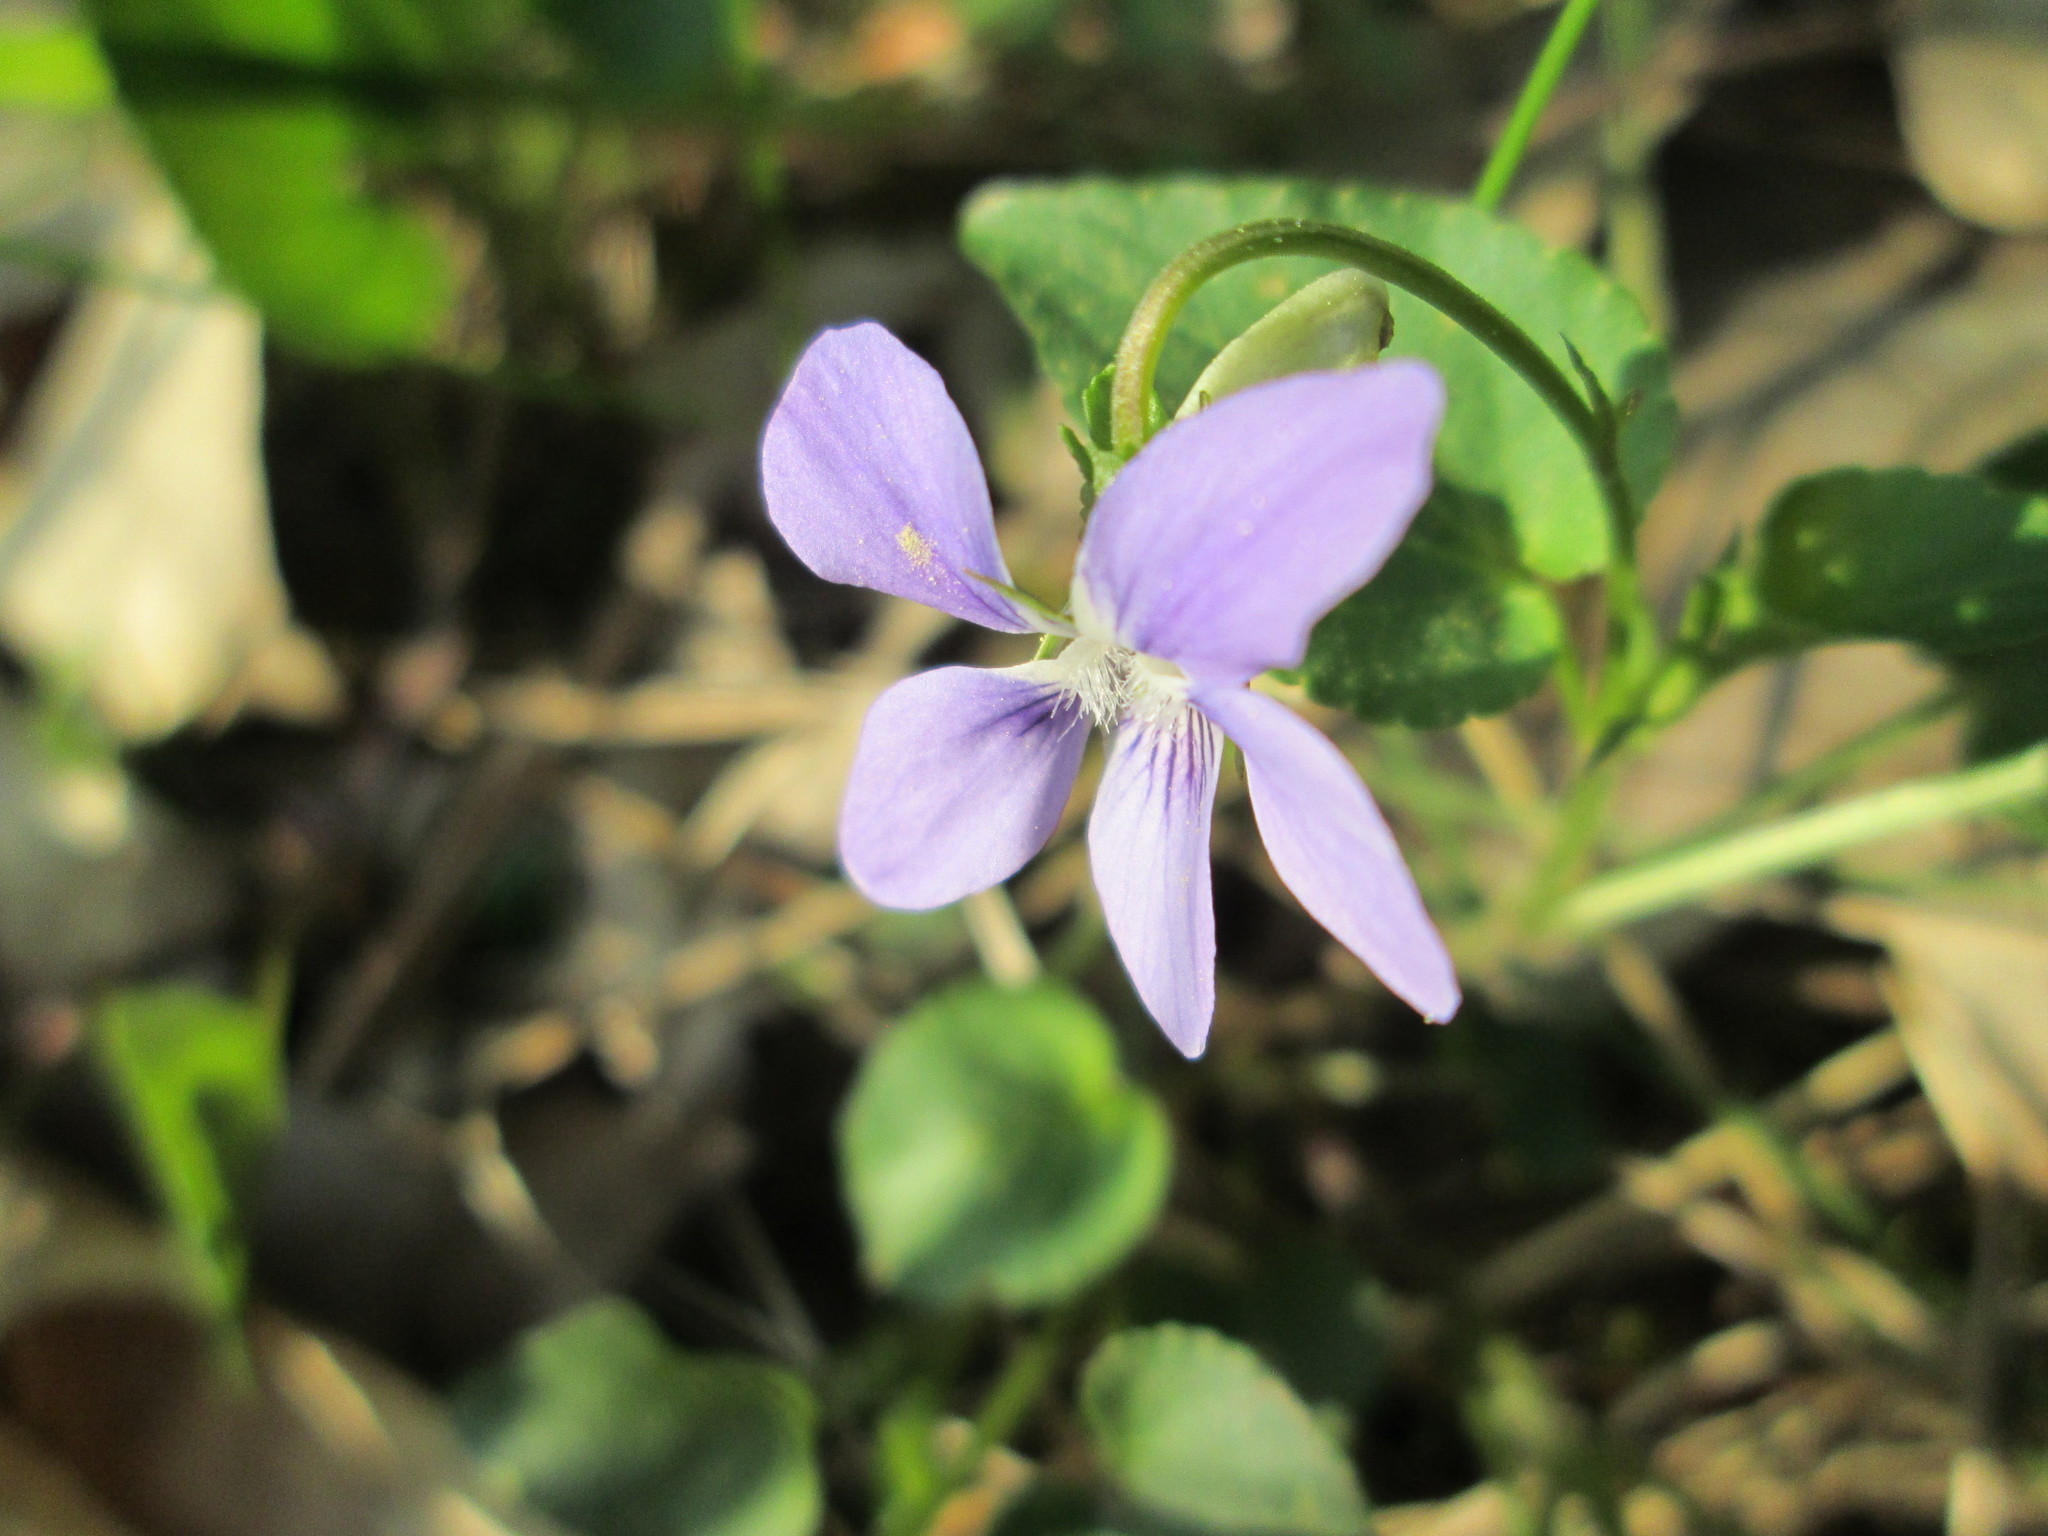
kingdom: Plantae
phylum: Tracheophyta
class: Magnoliopsida
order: Malpighiales
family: Violaceae
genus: Viola
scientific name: Viola riviniana
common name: Common dog-violet
